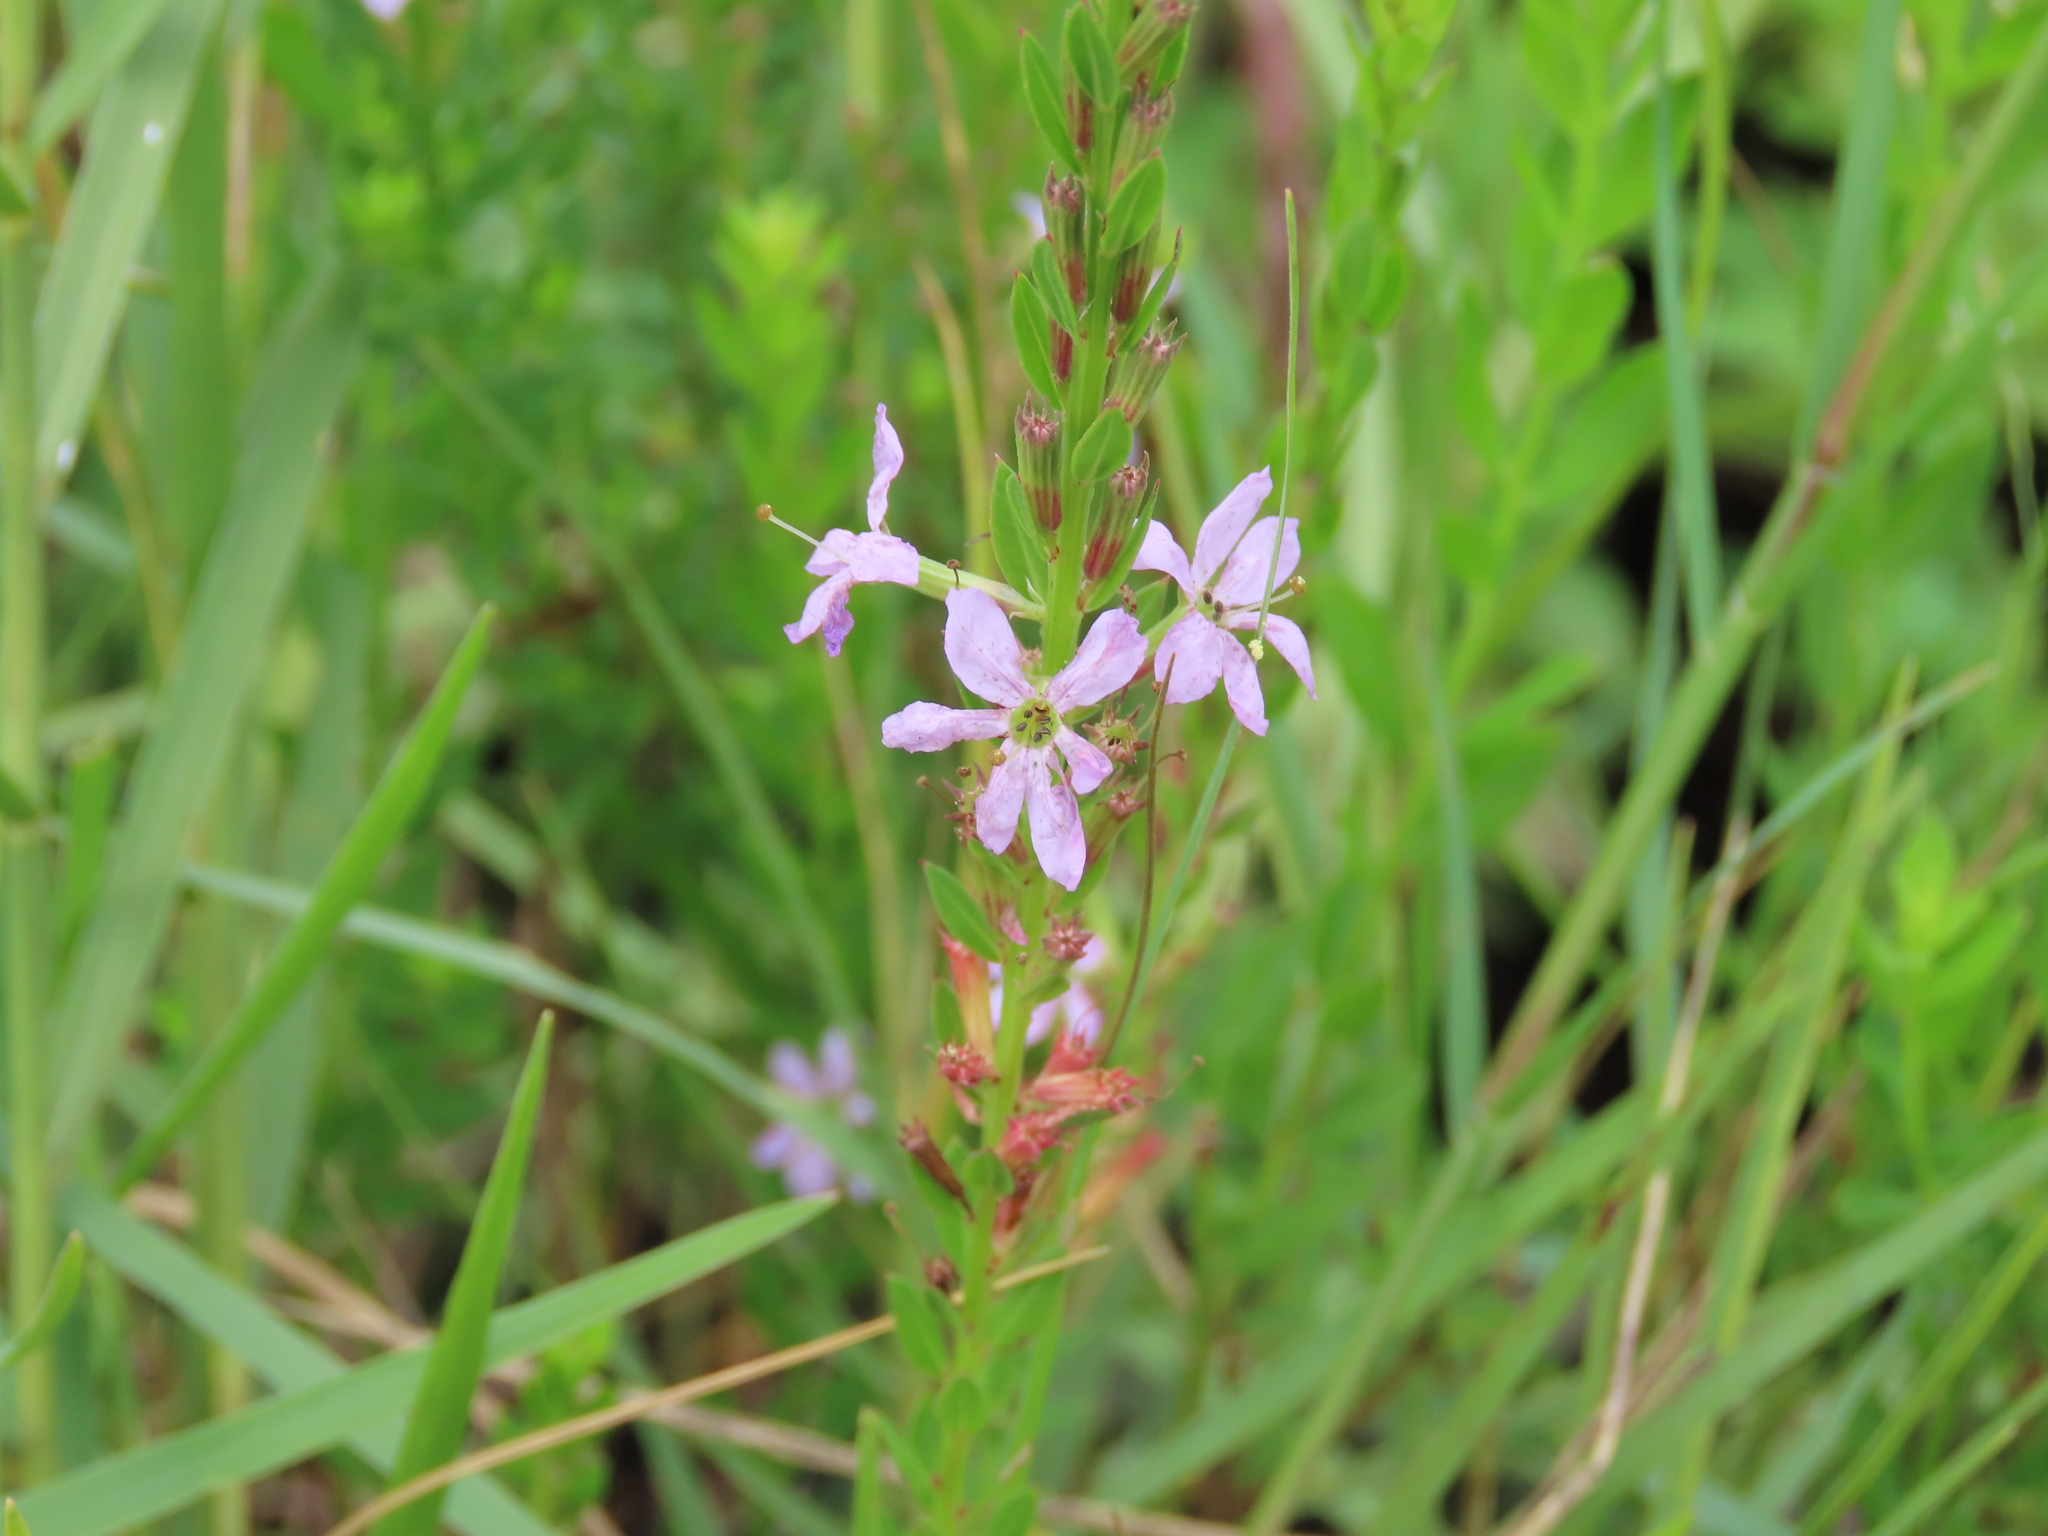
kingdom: Plantae
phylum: Tracheophyta
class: Magnoliopsida
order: Myrtales
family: Lythraceae
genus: Lythrum
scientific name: Lythrum alatum
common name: Winged loosestrife
